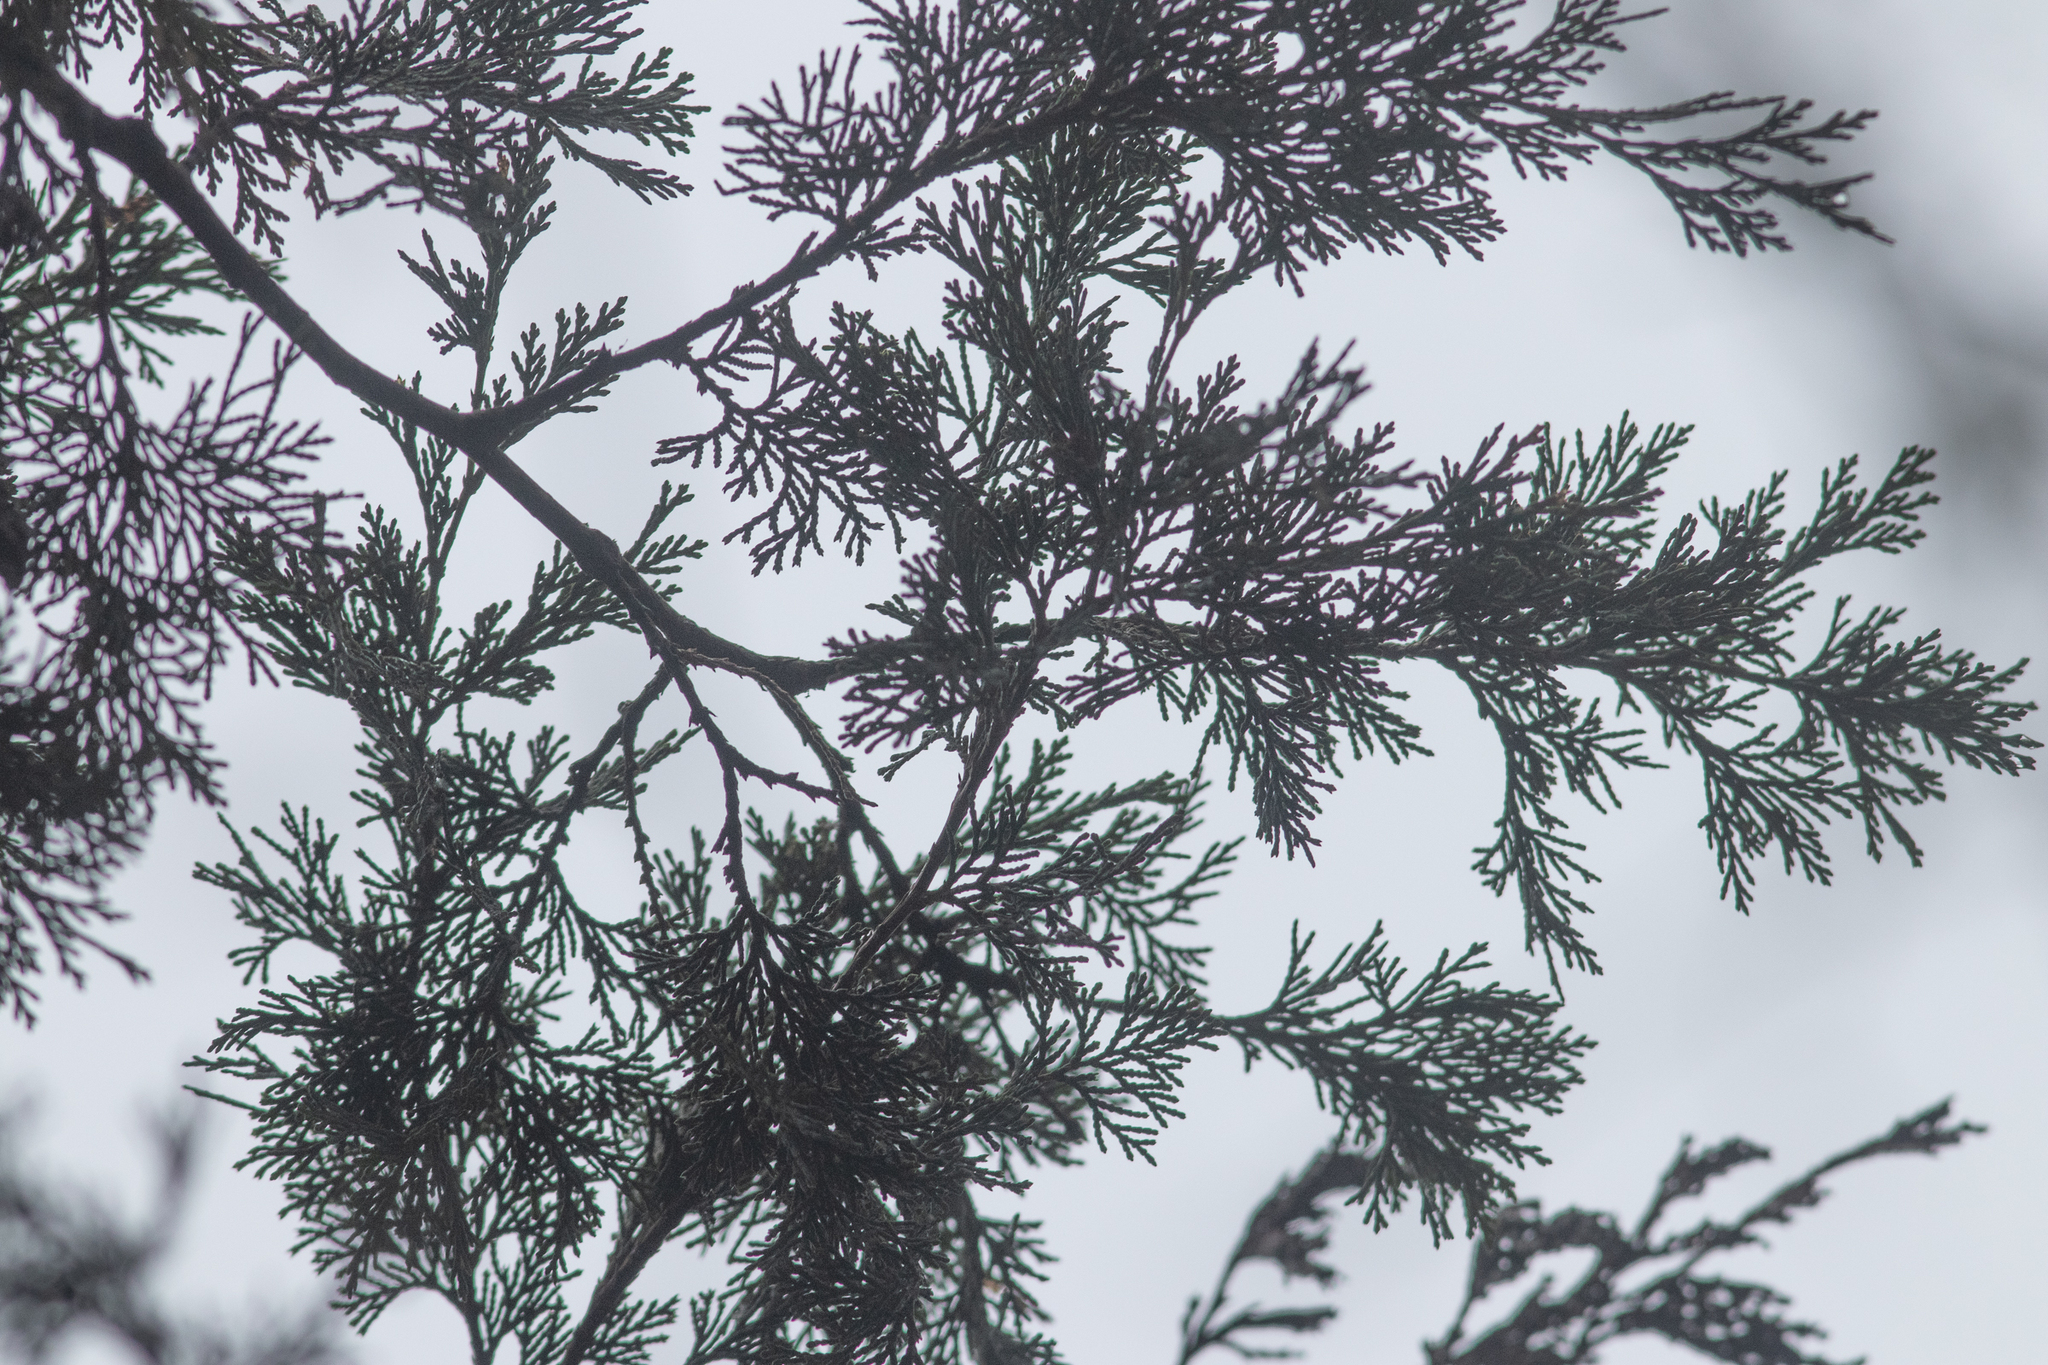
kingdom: Plantae
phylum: Tracheophyta
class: Pinopsida
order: Pinales
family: Cupressaceae
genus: Chamaecyparis
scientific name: Chamaecyparis thyoides
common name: Atlantic white cedar
